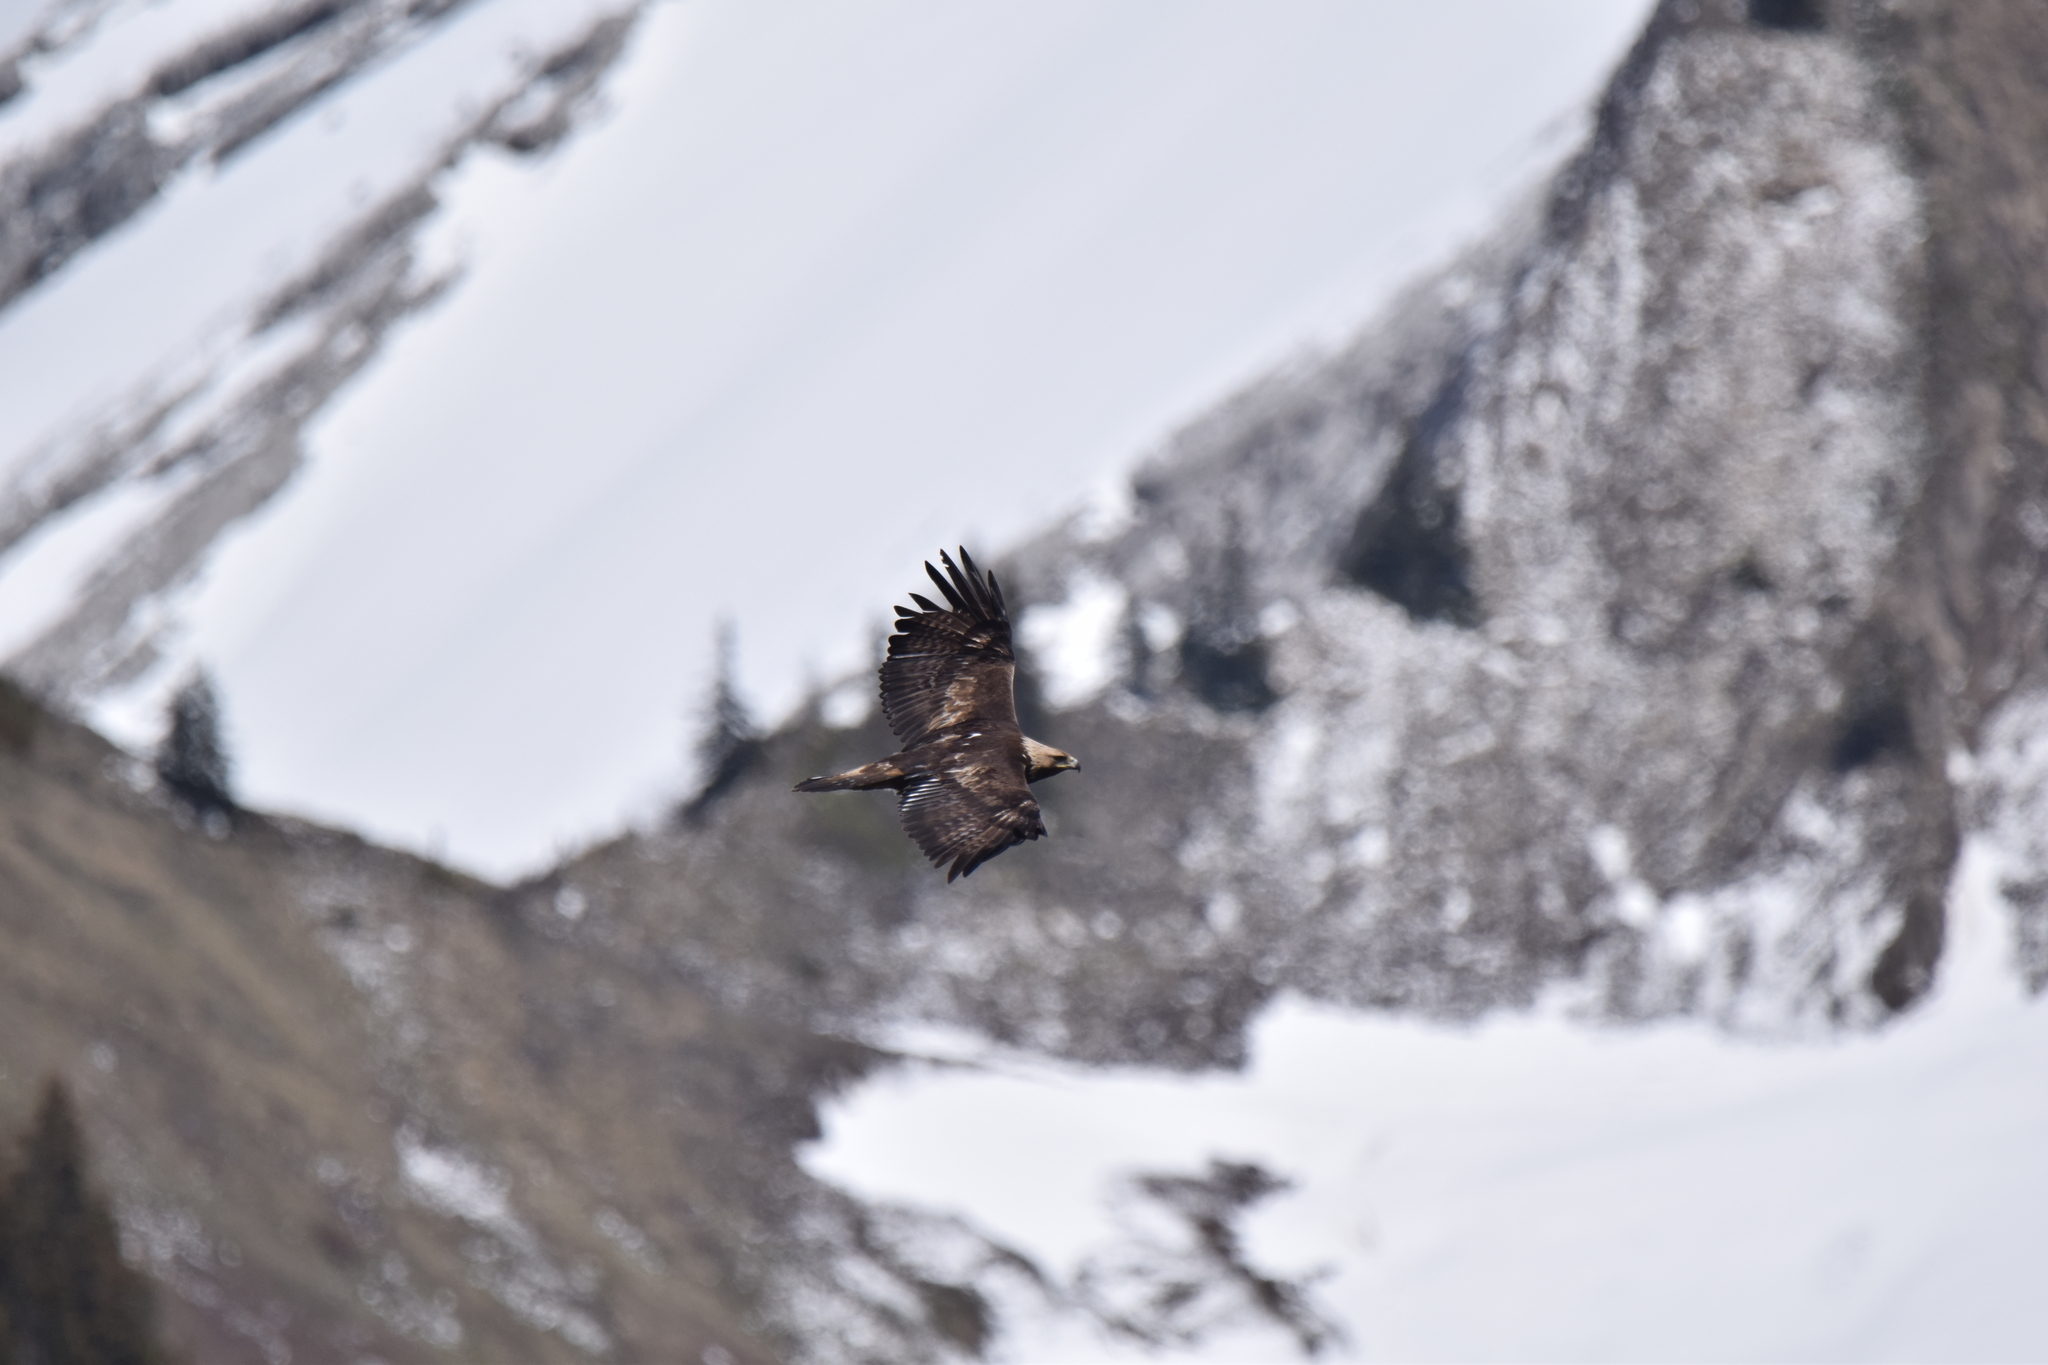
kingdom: Animalia
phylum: Chordata
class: Aves
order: Accipitriformes
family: Accipitridae
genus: Aquila
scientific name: Aquila chrysaetos
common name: Golden eagle
